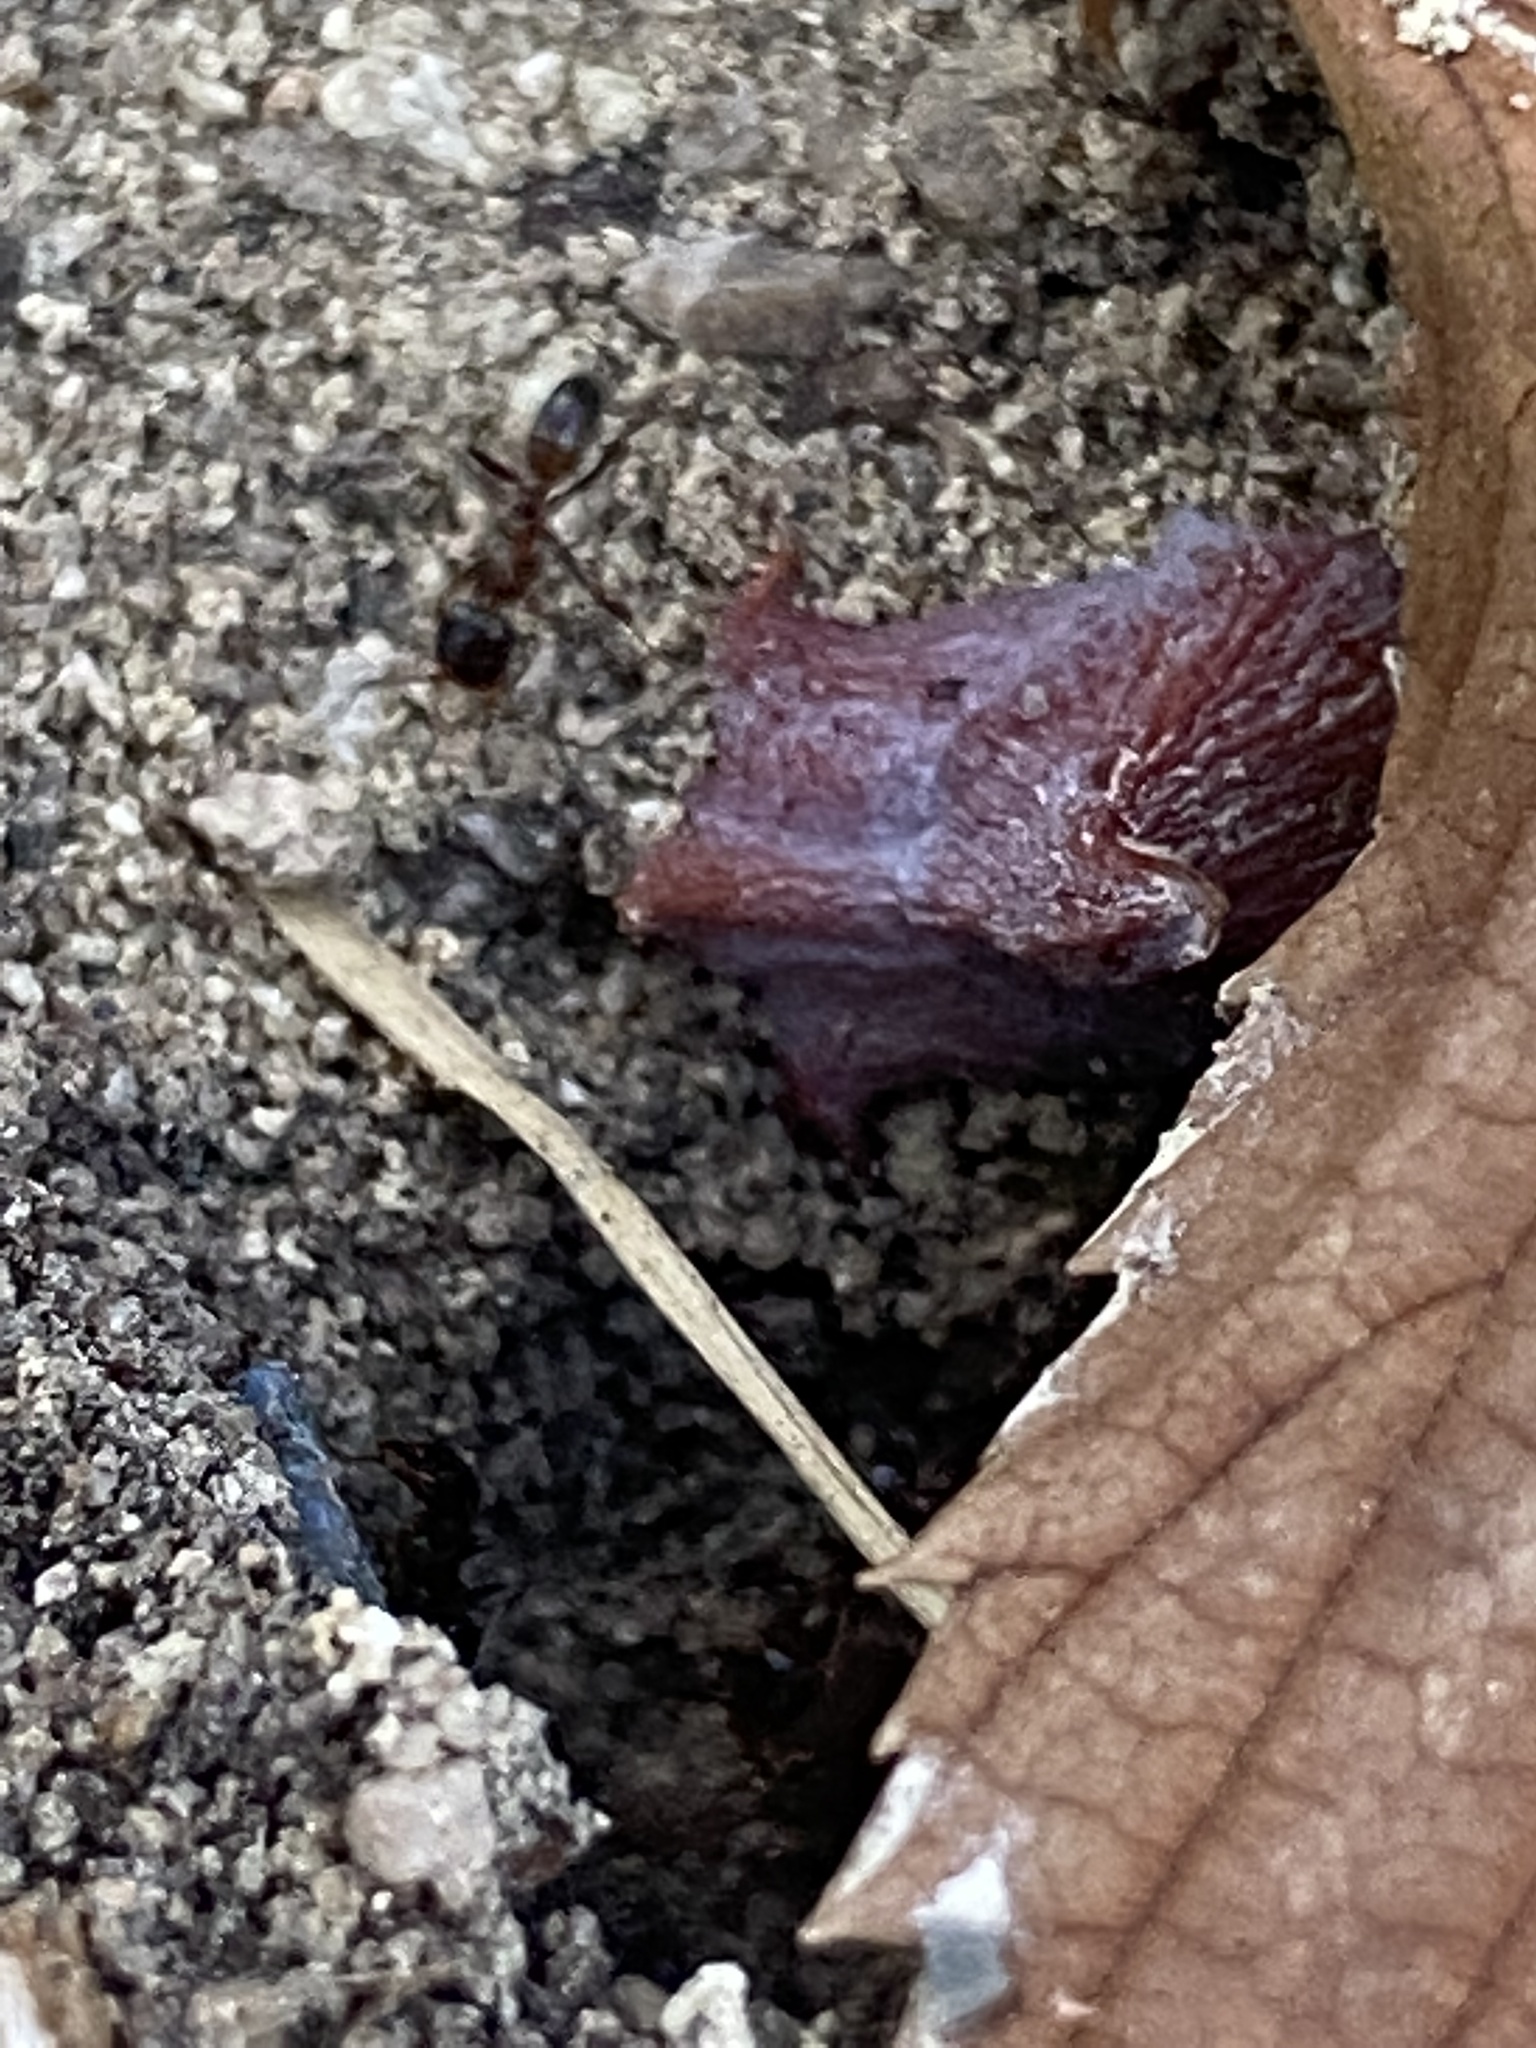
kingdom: Animalia
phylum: Arthropoda
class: Insecta
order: Hymenoptera
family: Formicidae
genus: Dorymyrmex
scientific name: Dorymyrmex flavus
